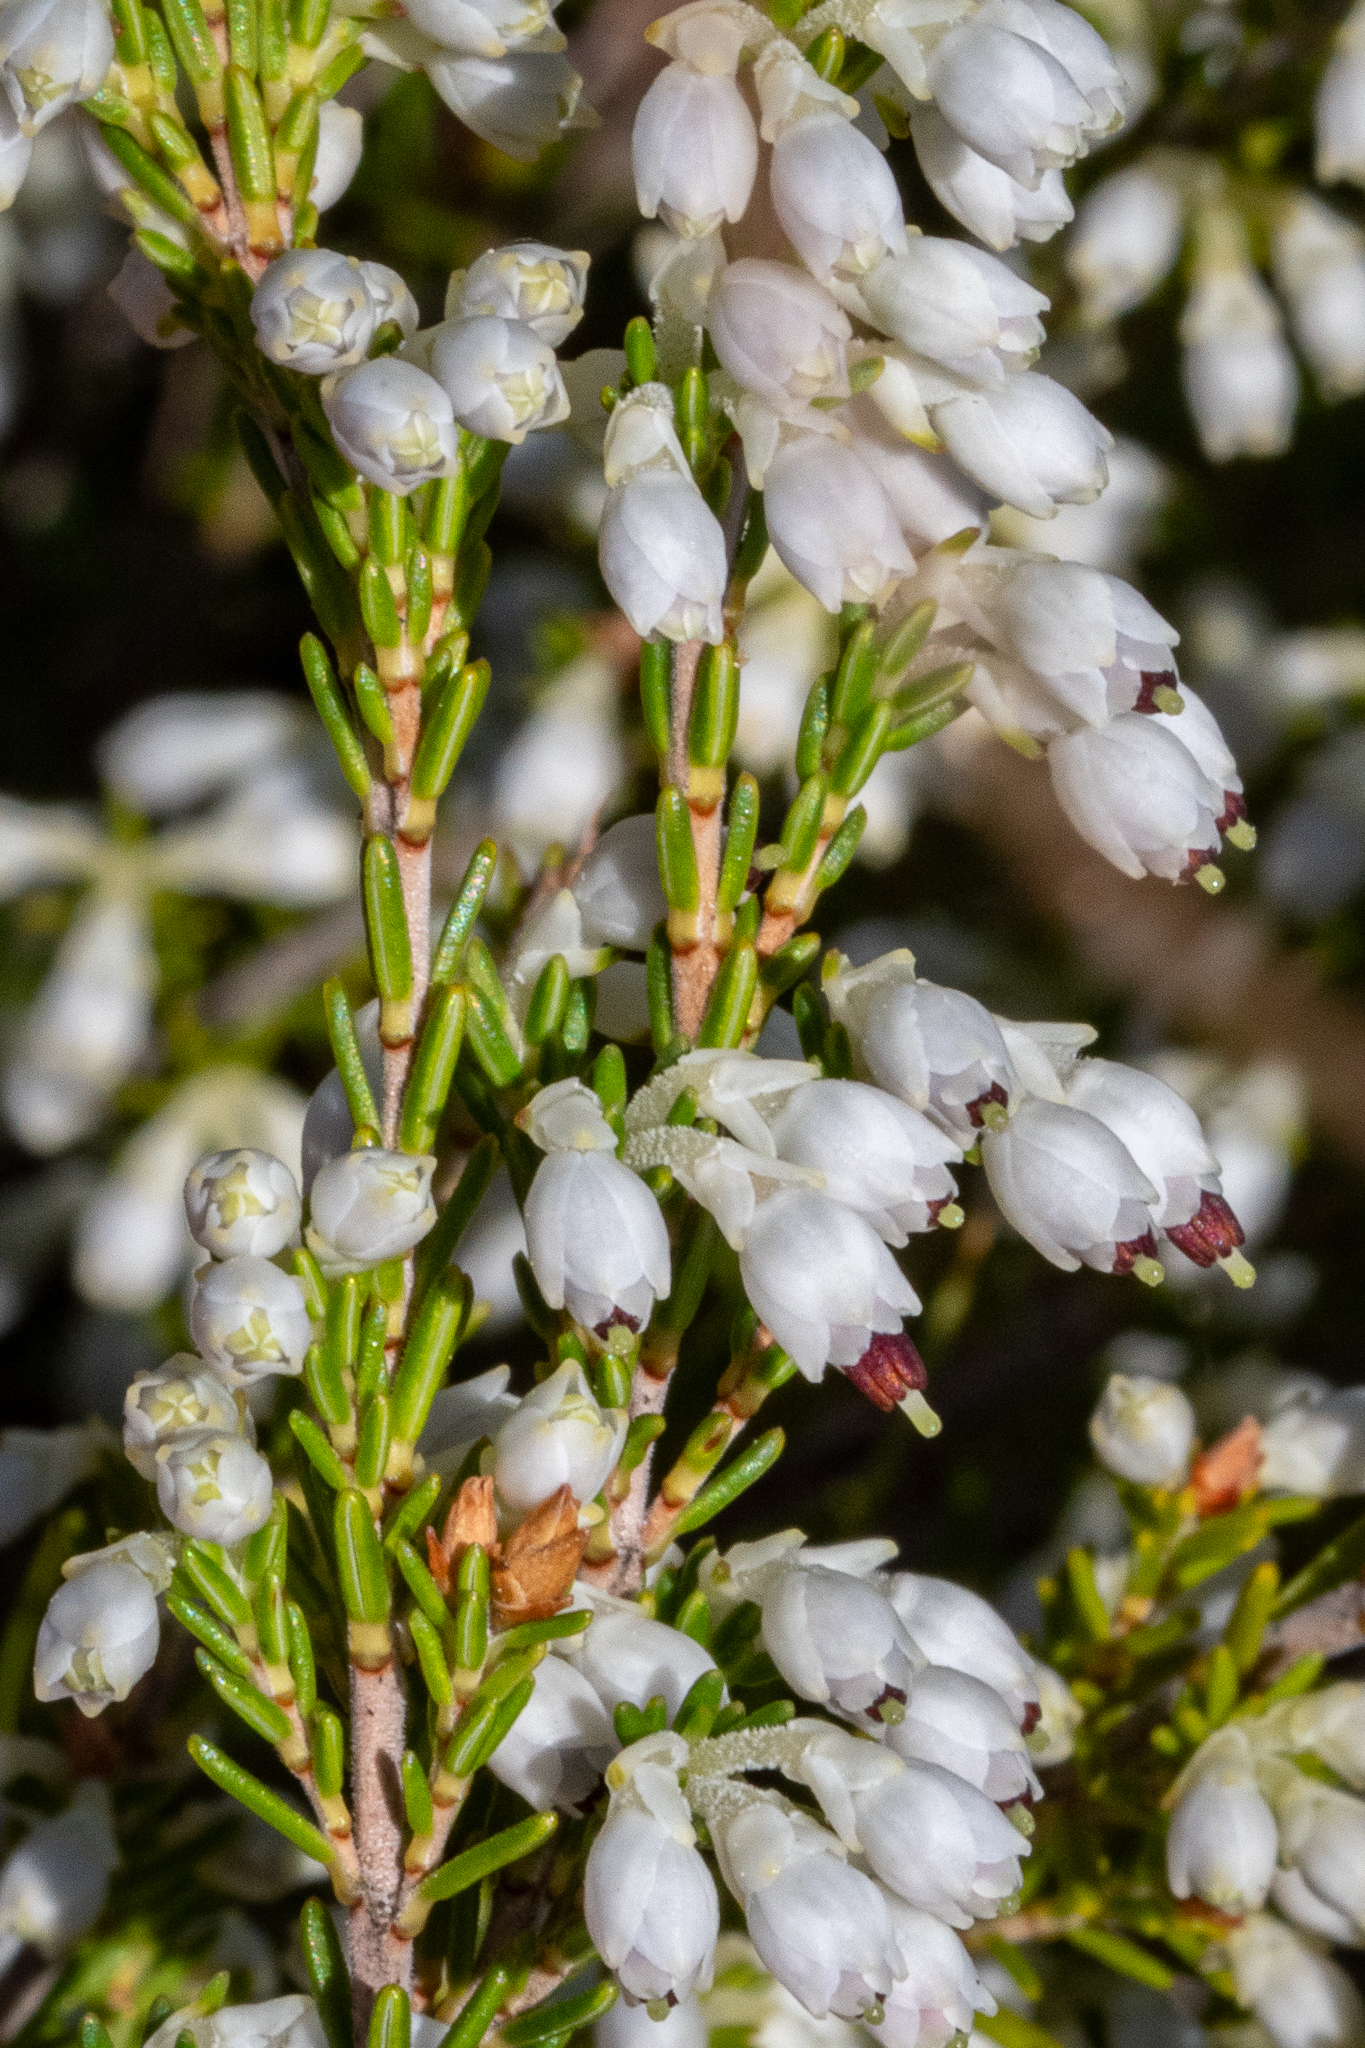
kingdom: Plantae
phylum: Tracheophyta
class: Magnoliopsida
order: Ericales
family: Ericaceae
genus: Erica
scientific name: Erica imbricata
